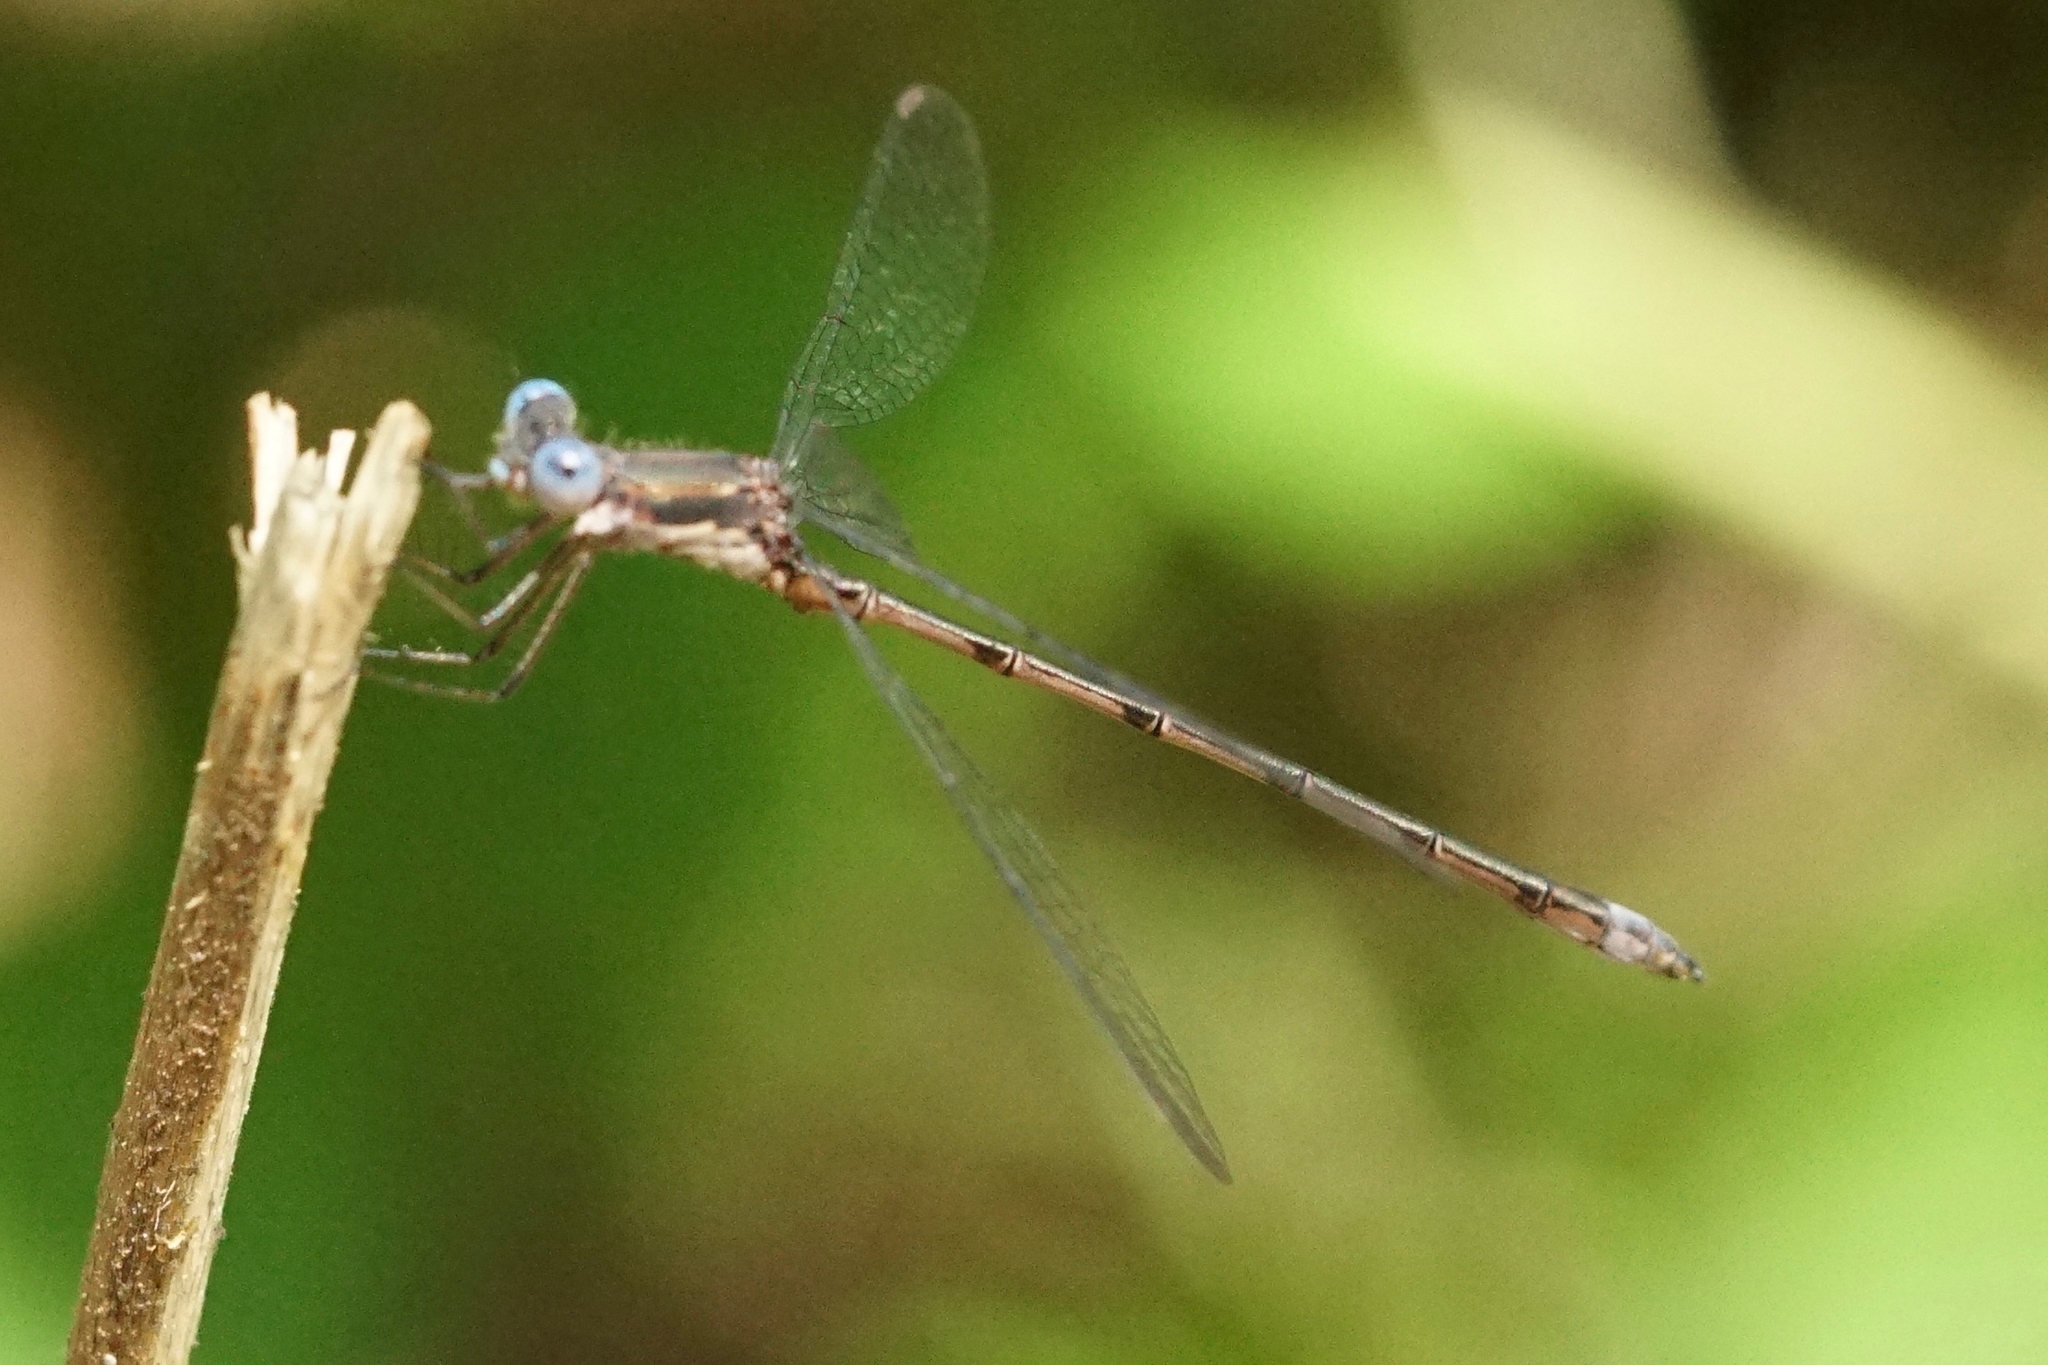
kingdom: Animalia
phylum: Arthropoda
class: Insecta
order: Odonata
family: Lestidae
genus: Lestes
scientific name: Lestes forcipatus
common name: Sweetflag spreadwing
